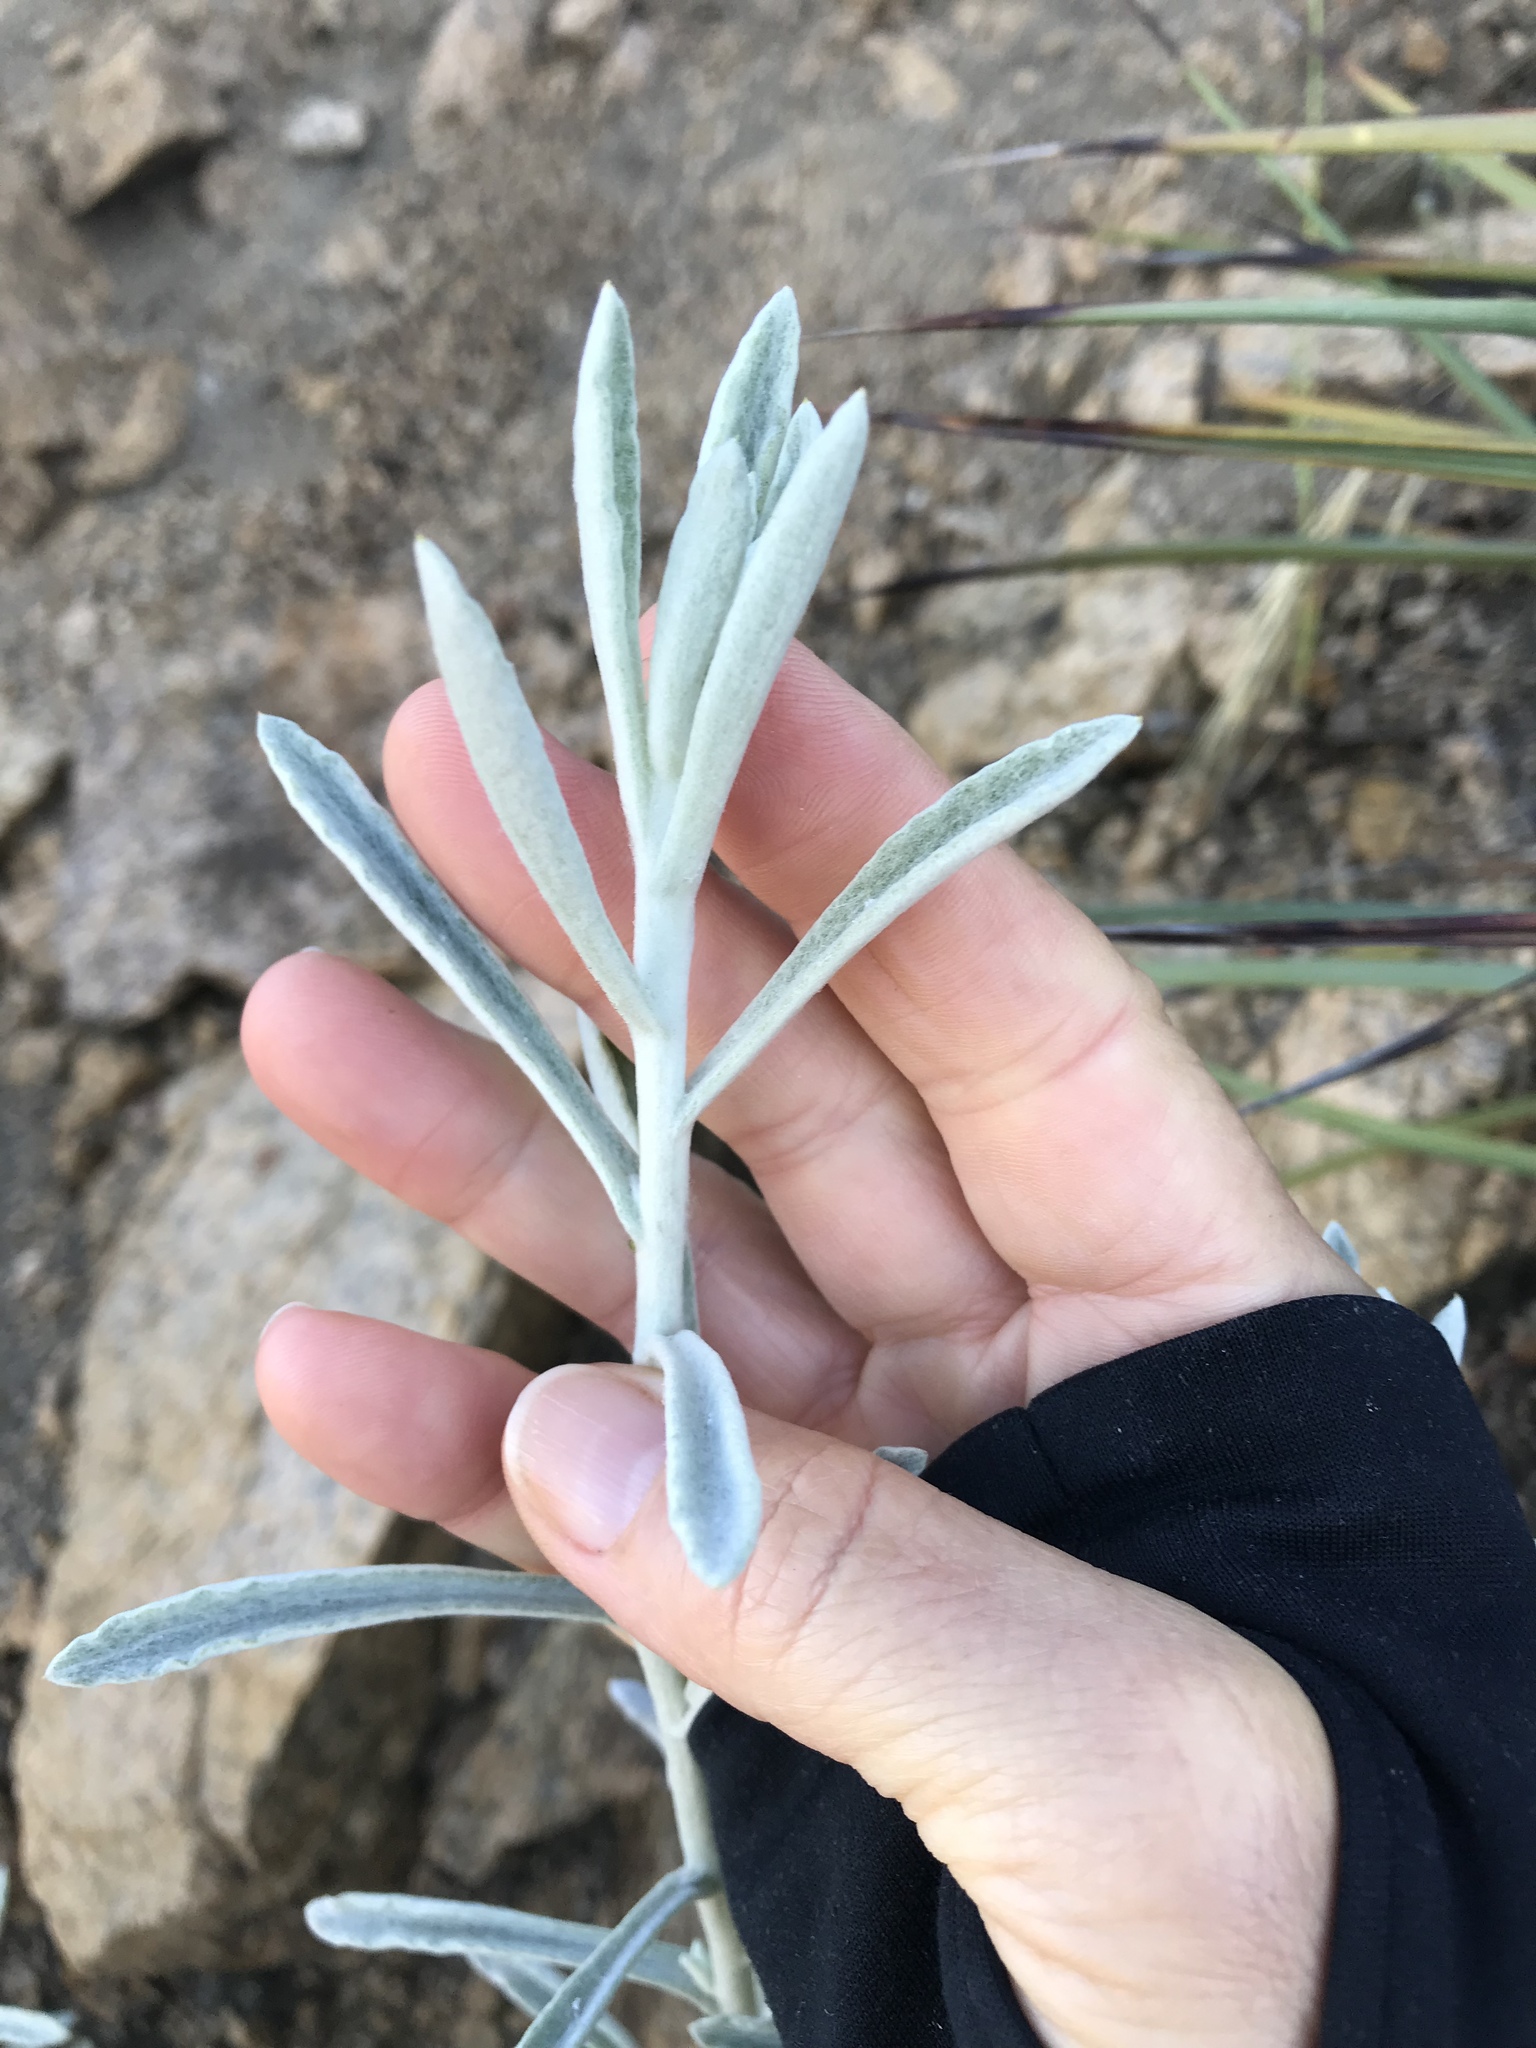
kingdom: Plantae
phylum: Tracheophyta
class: Magnoliopsida
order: Asterales
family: Asteraceae
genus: Pseudognaphalium
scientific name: Pseudognaphalium microcephalum
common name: San diego rabbit-tobacco
